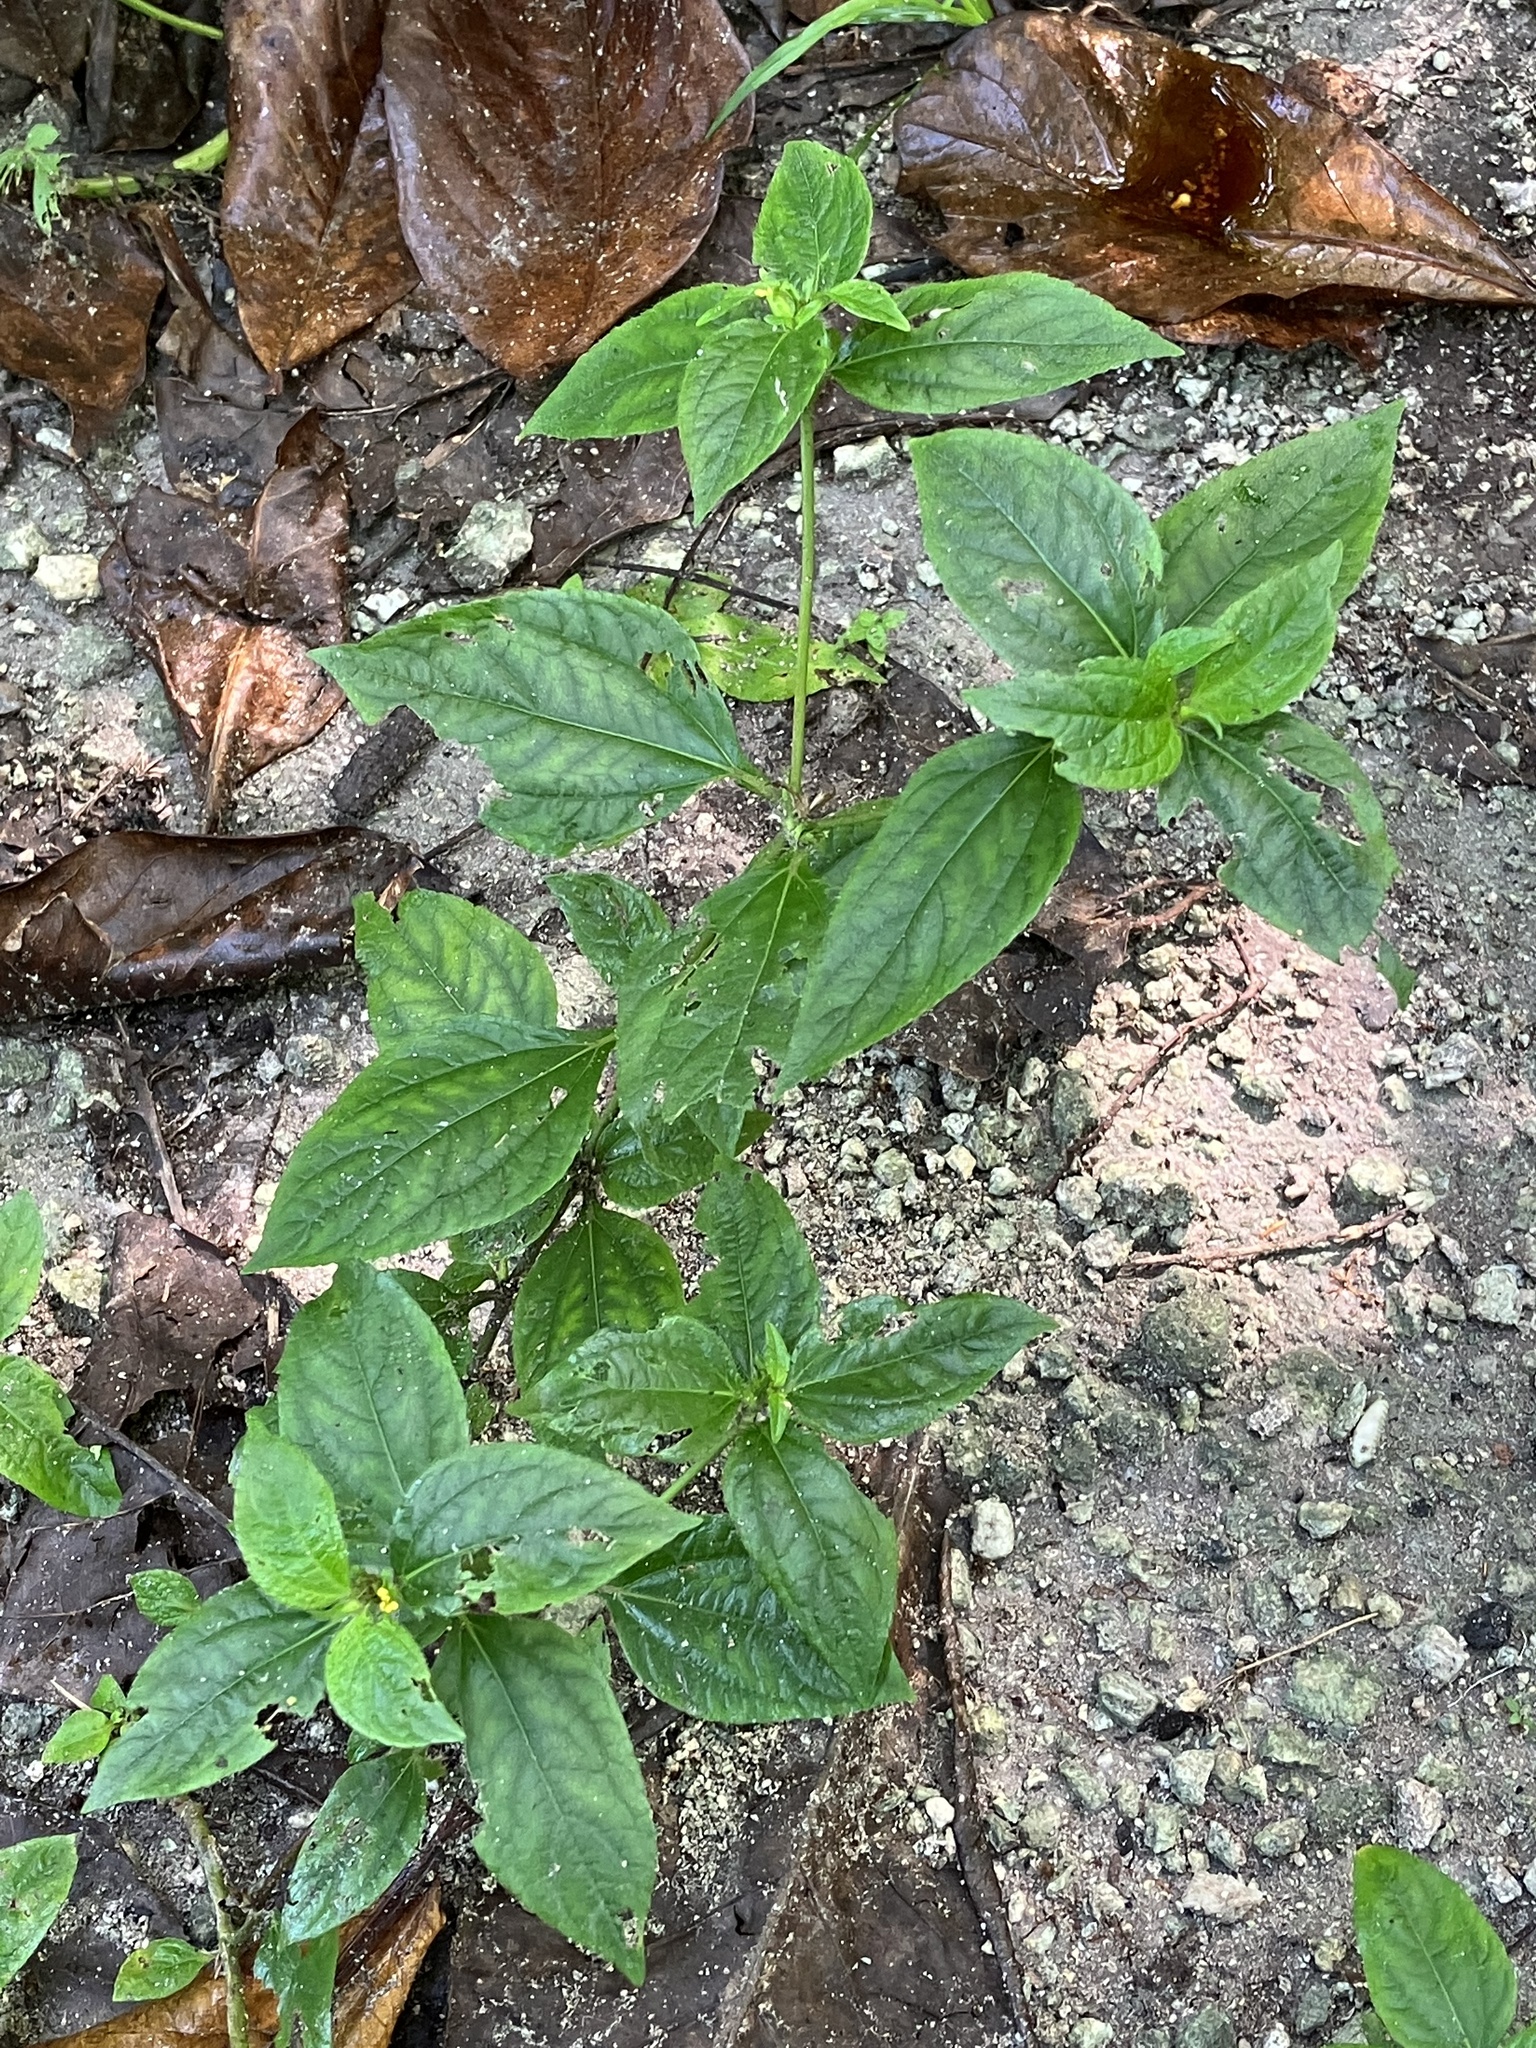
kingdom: Plantae
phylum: Tracheophyta
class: Magnoliopsida
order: Asterales
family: Asteraceae
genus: Synedrella
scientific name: Synedrella nodiflora
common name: Nodeweed
